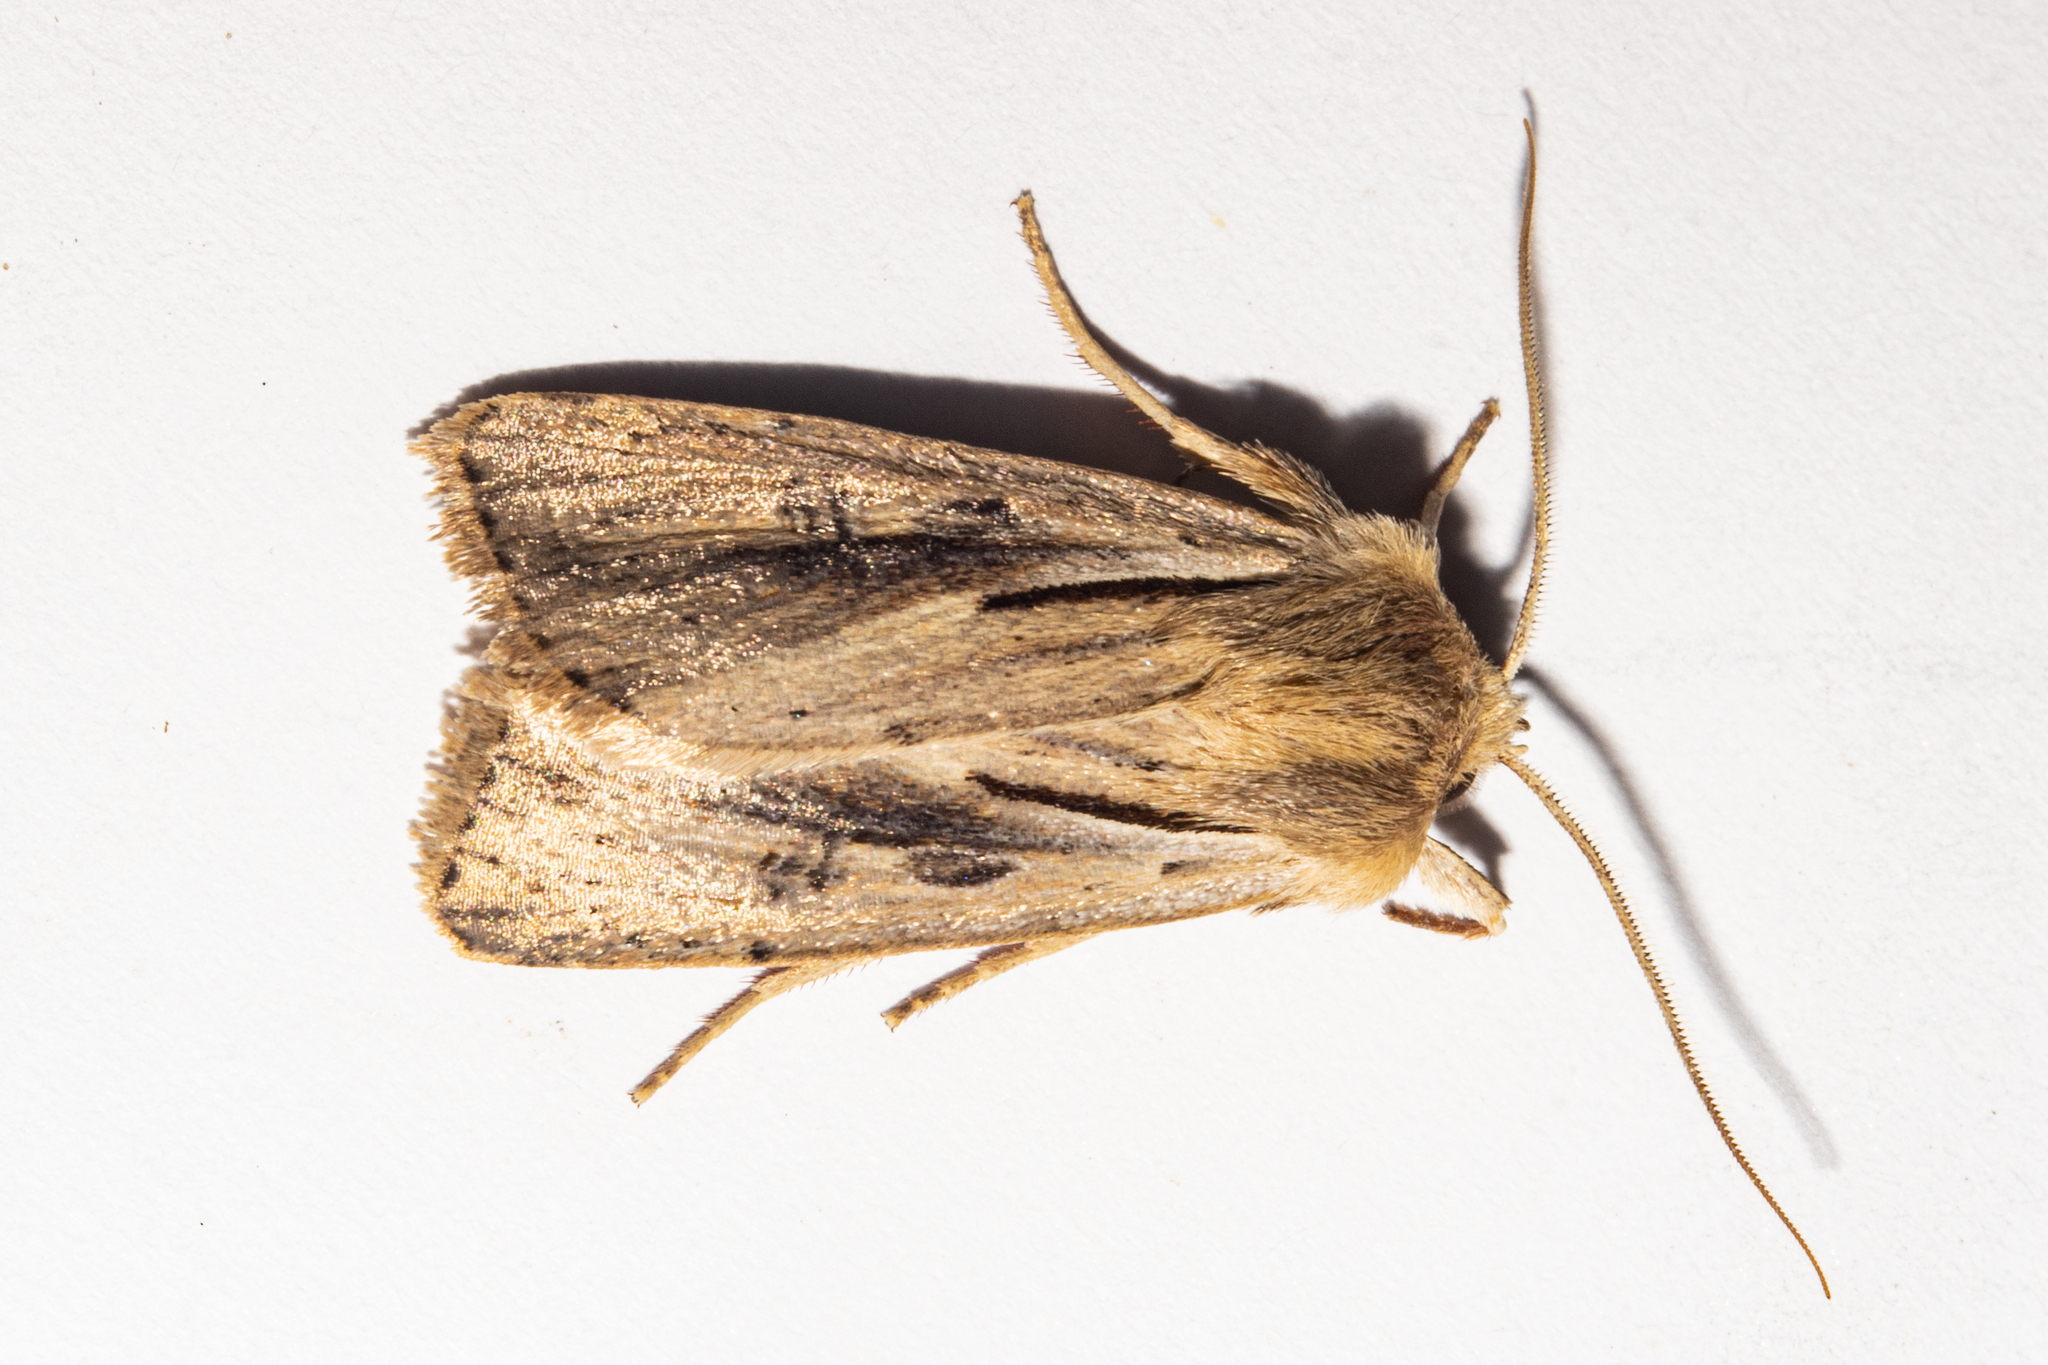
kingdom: Animalia
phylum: Arthropoda
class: Insecta
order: Lepidoptera
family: Noctuidae
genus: Ichneutica
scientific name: Ichneutica propria
